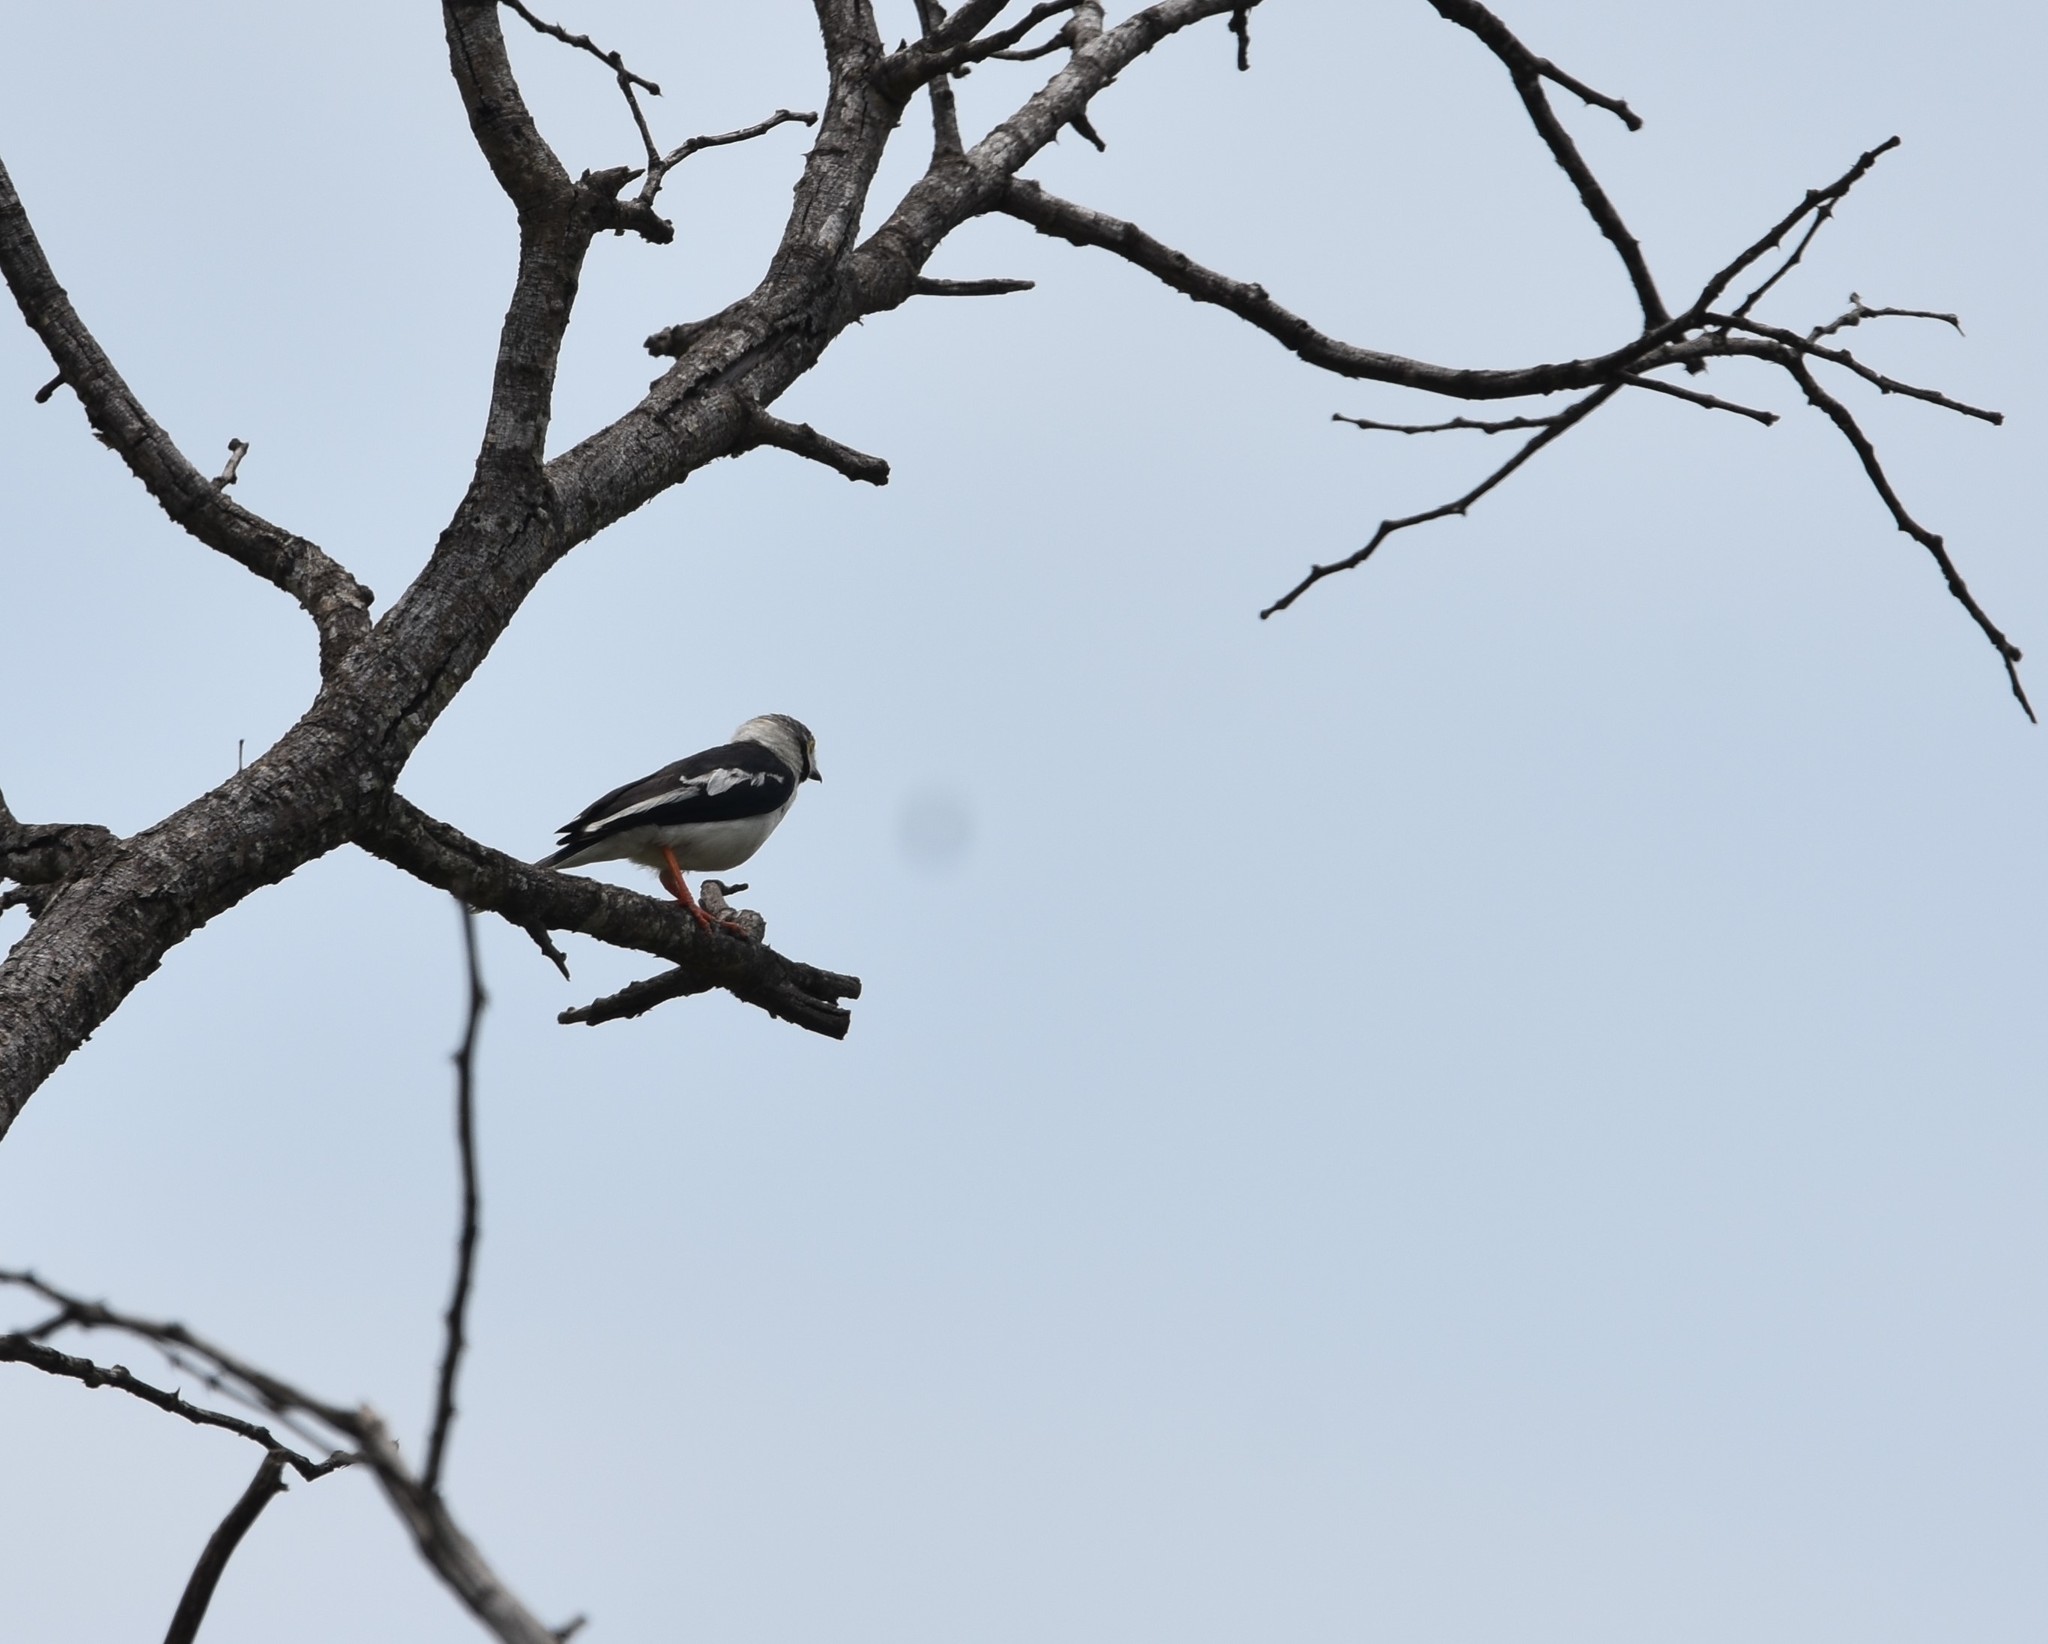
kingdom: Animalia
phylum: Chordata
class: Aves
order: Passeriformes
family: Prionopidae
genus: Prionops
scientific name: Prionops plumatus
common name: White-crested helmetshrike
